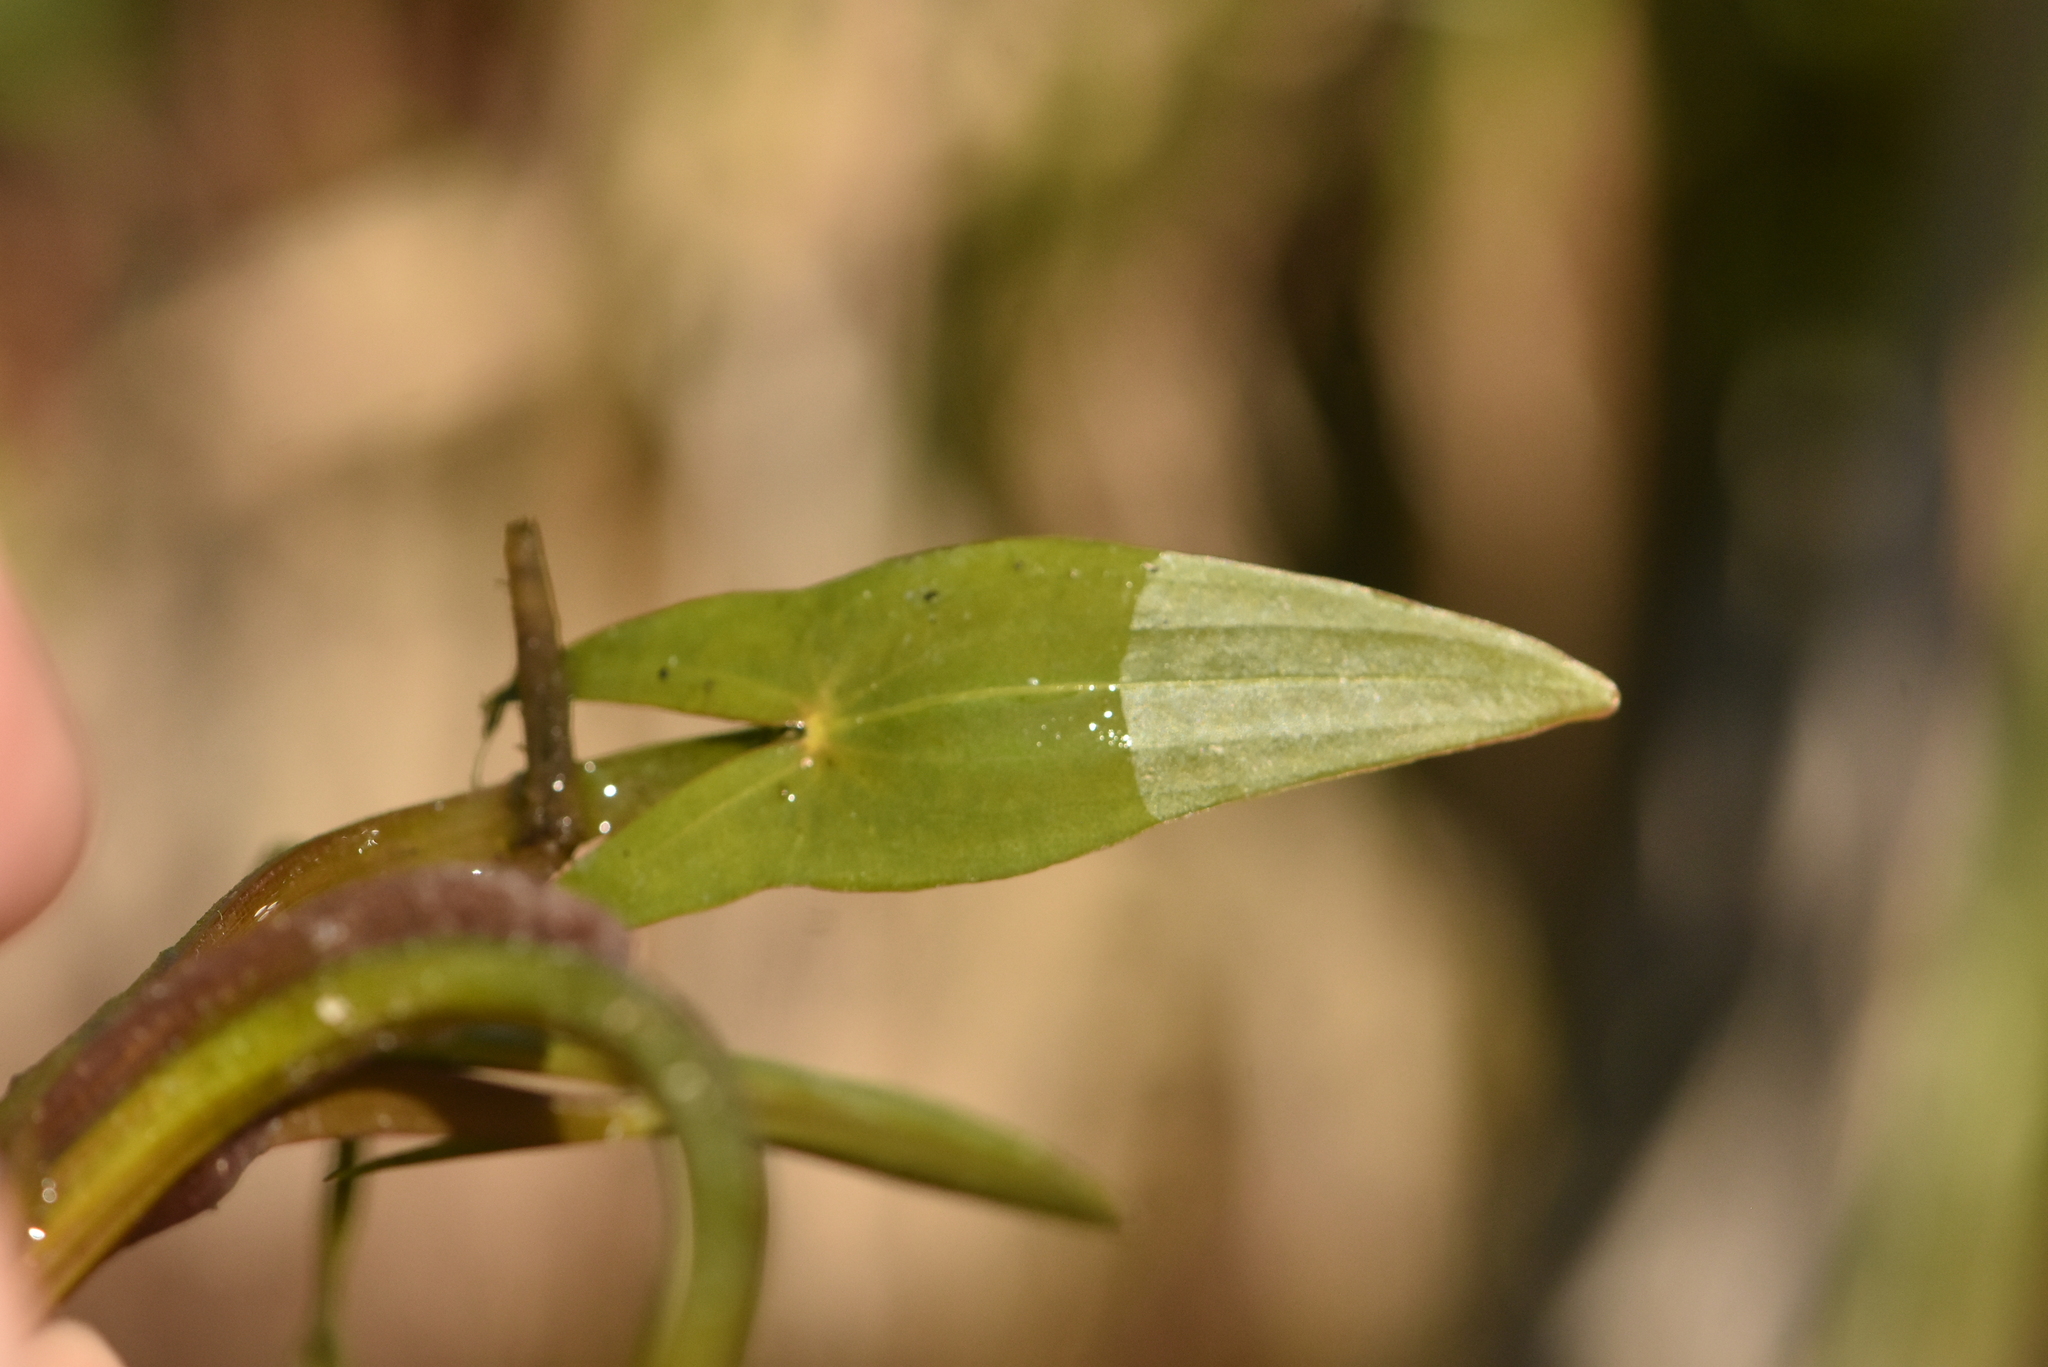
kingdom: Plantae
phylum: Tracheophyta
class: Liliopsida
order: Alismatales
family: Alismataceae
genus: Sagittaria
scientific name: Sagittaria sagittifolia
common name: Arrowhead
